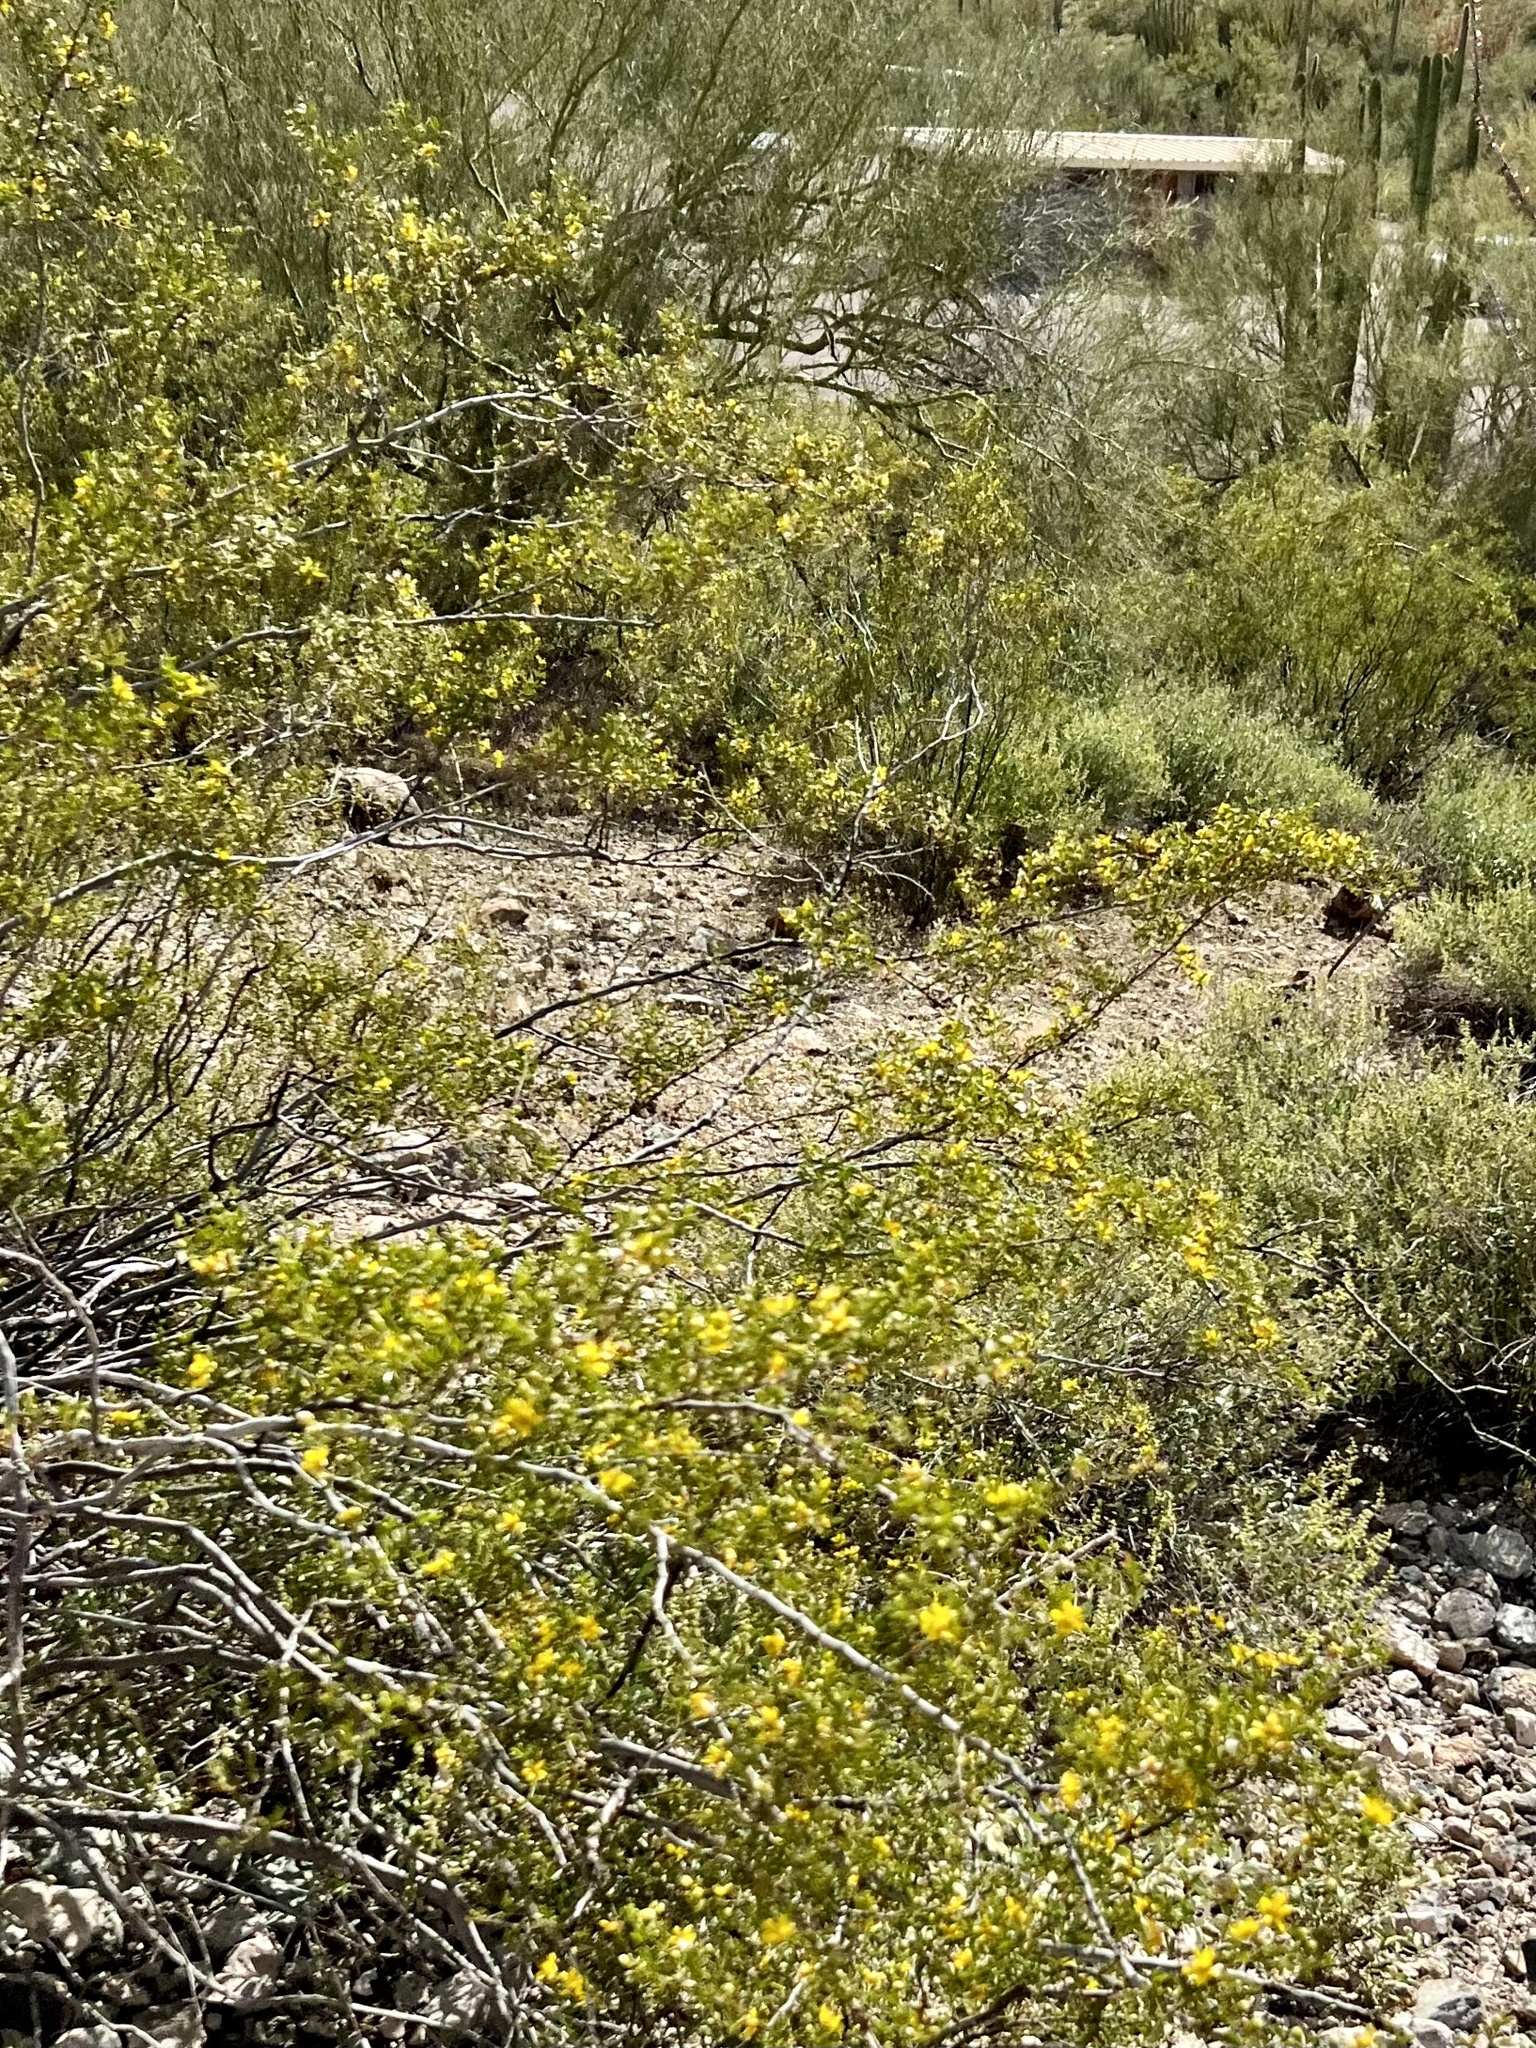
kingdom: Plantae
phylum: Tracheophyta
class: Magnoliopsida
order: Zygophyllales
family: Zygophyllaceae
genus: Larrea
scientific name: Larrea tridentata
